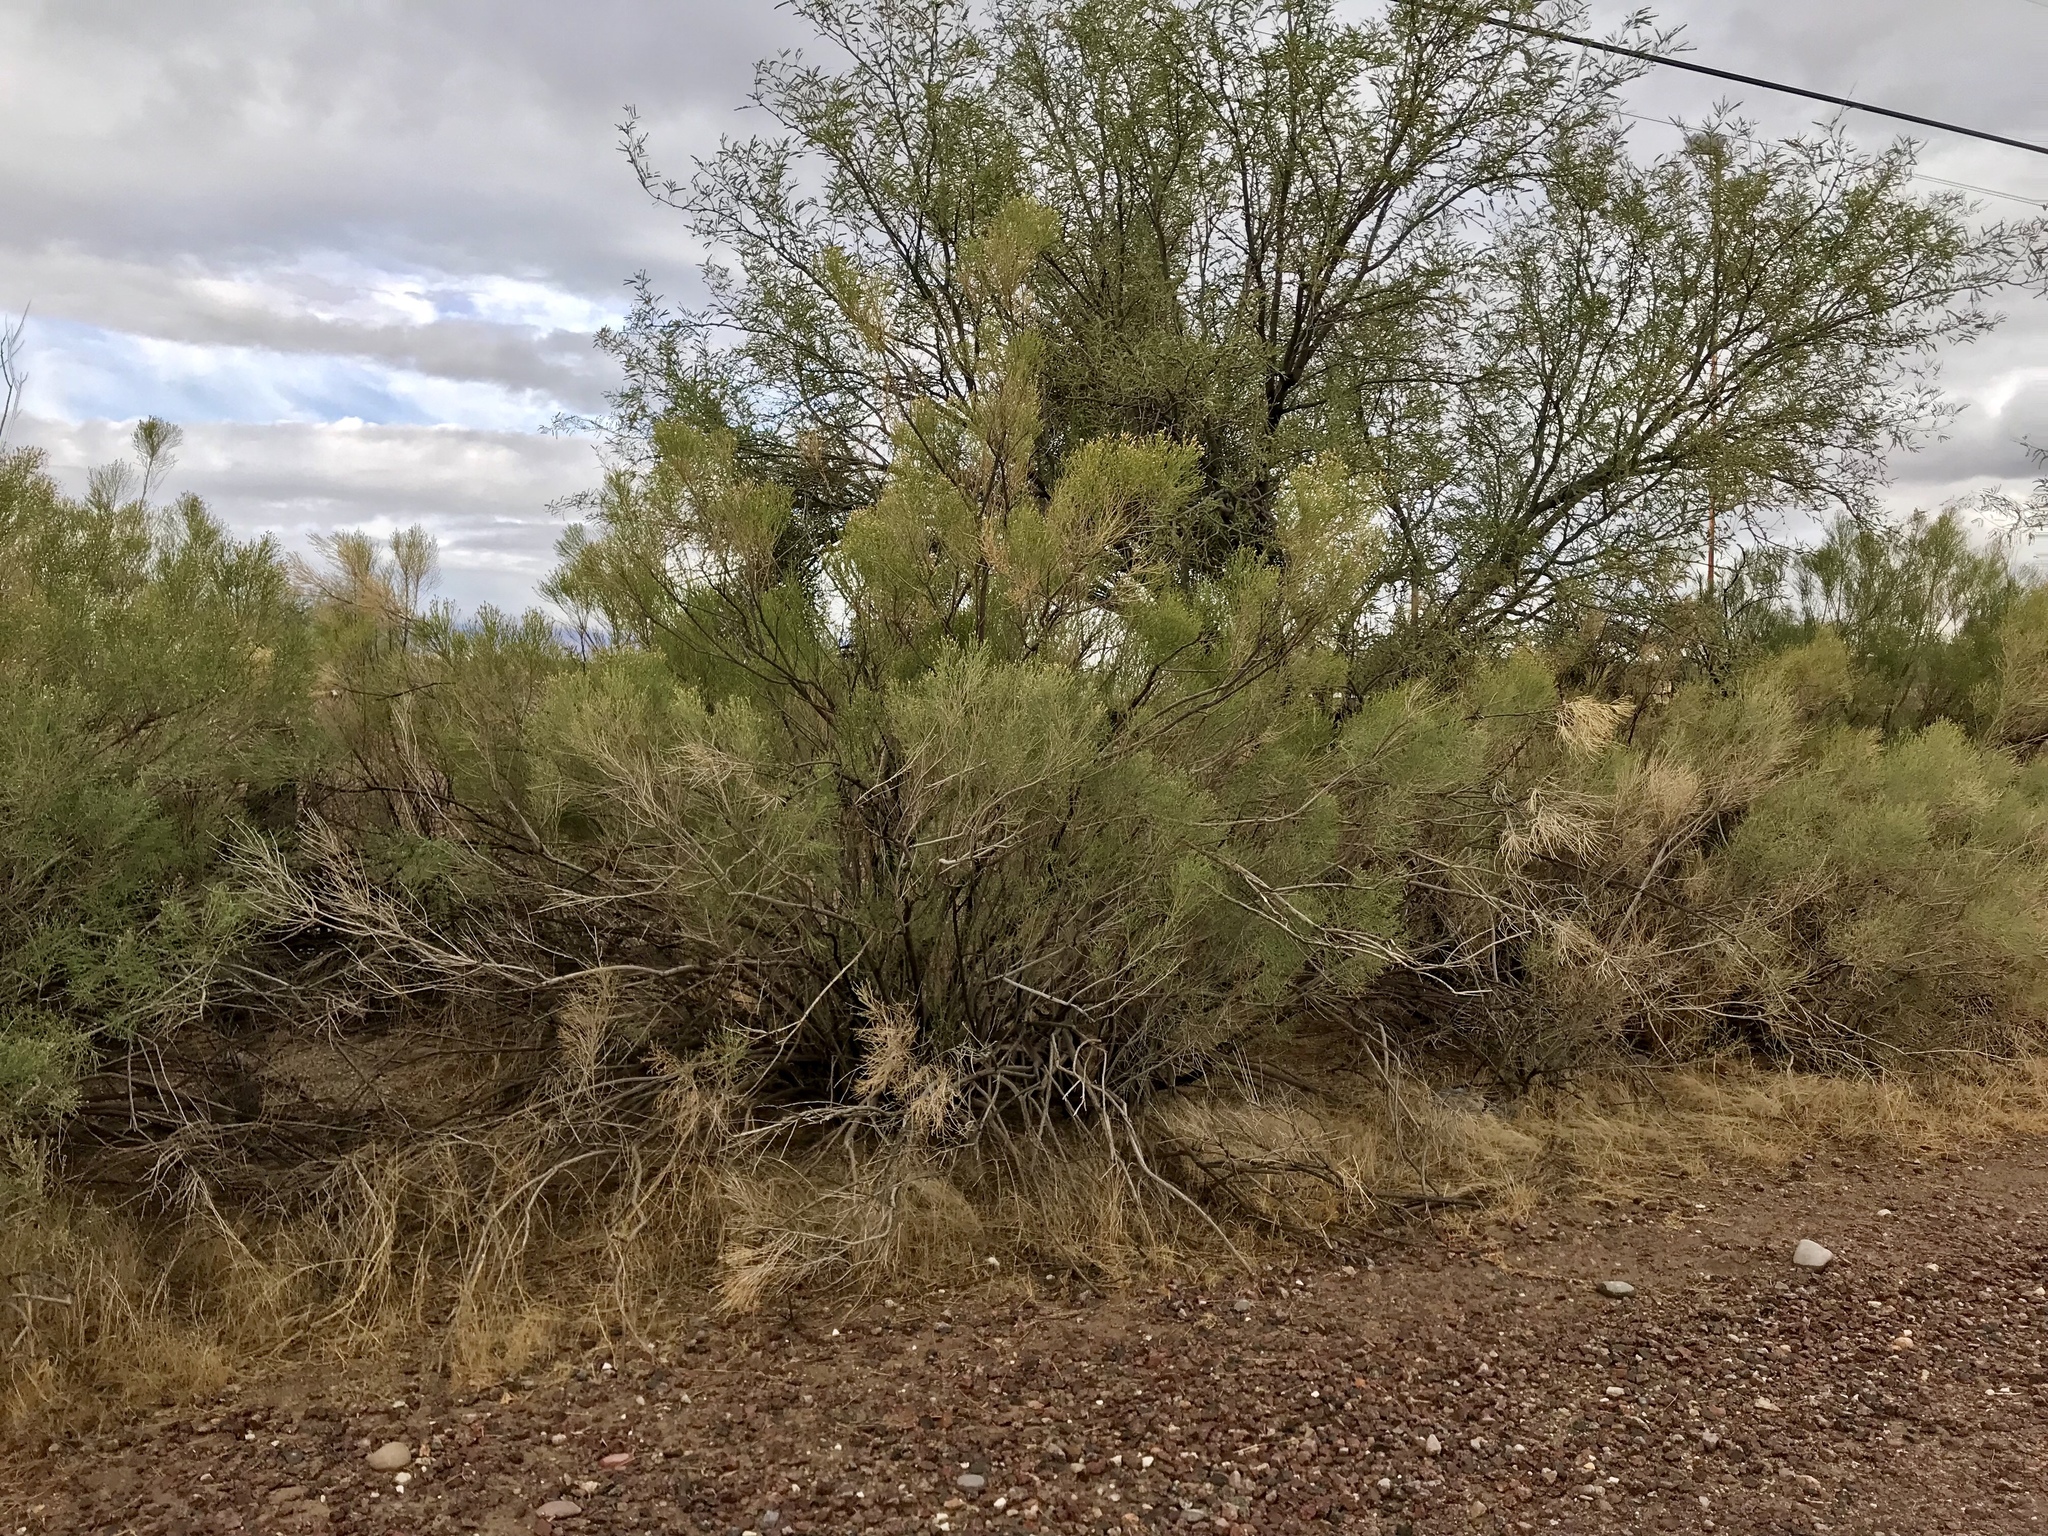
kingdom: Plantae
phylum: Tracheophyta
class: Magnoliopsida
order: Asterales
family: Asteraceae
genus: Baccharis
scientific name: Baccharis sarothroides
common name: Desert-broom
